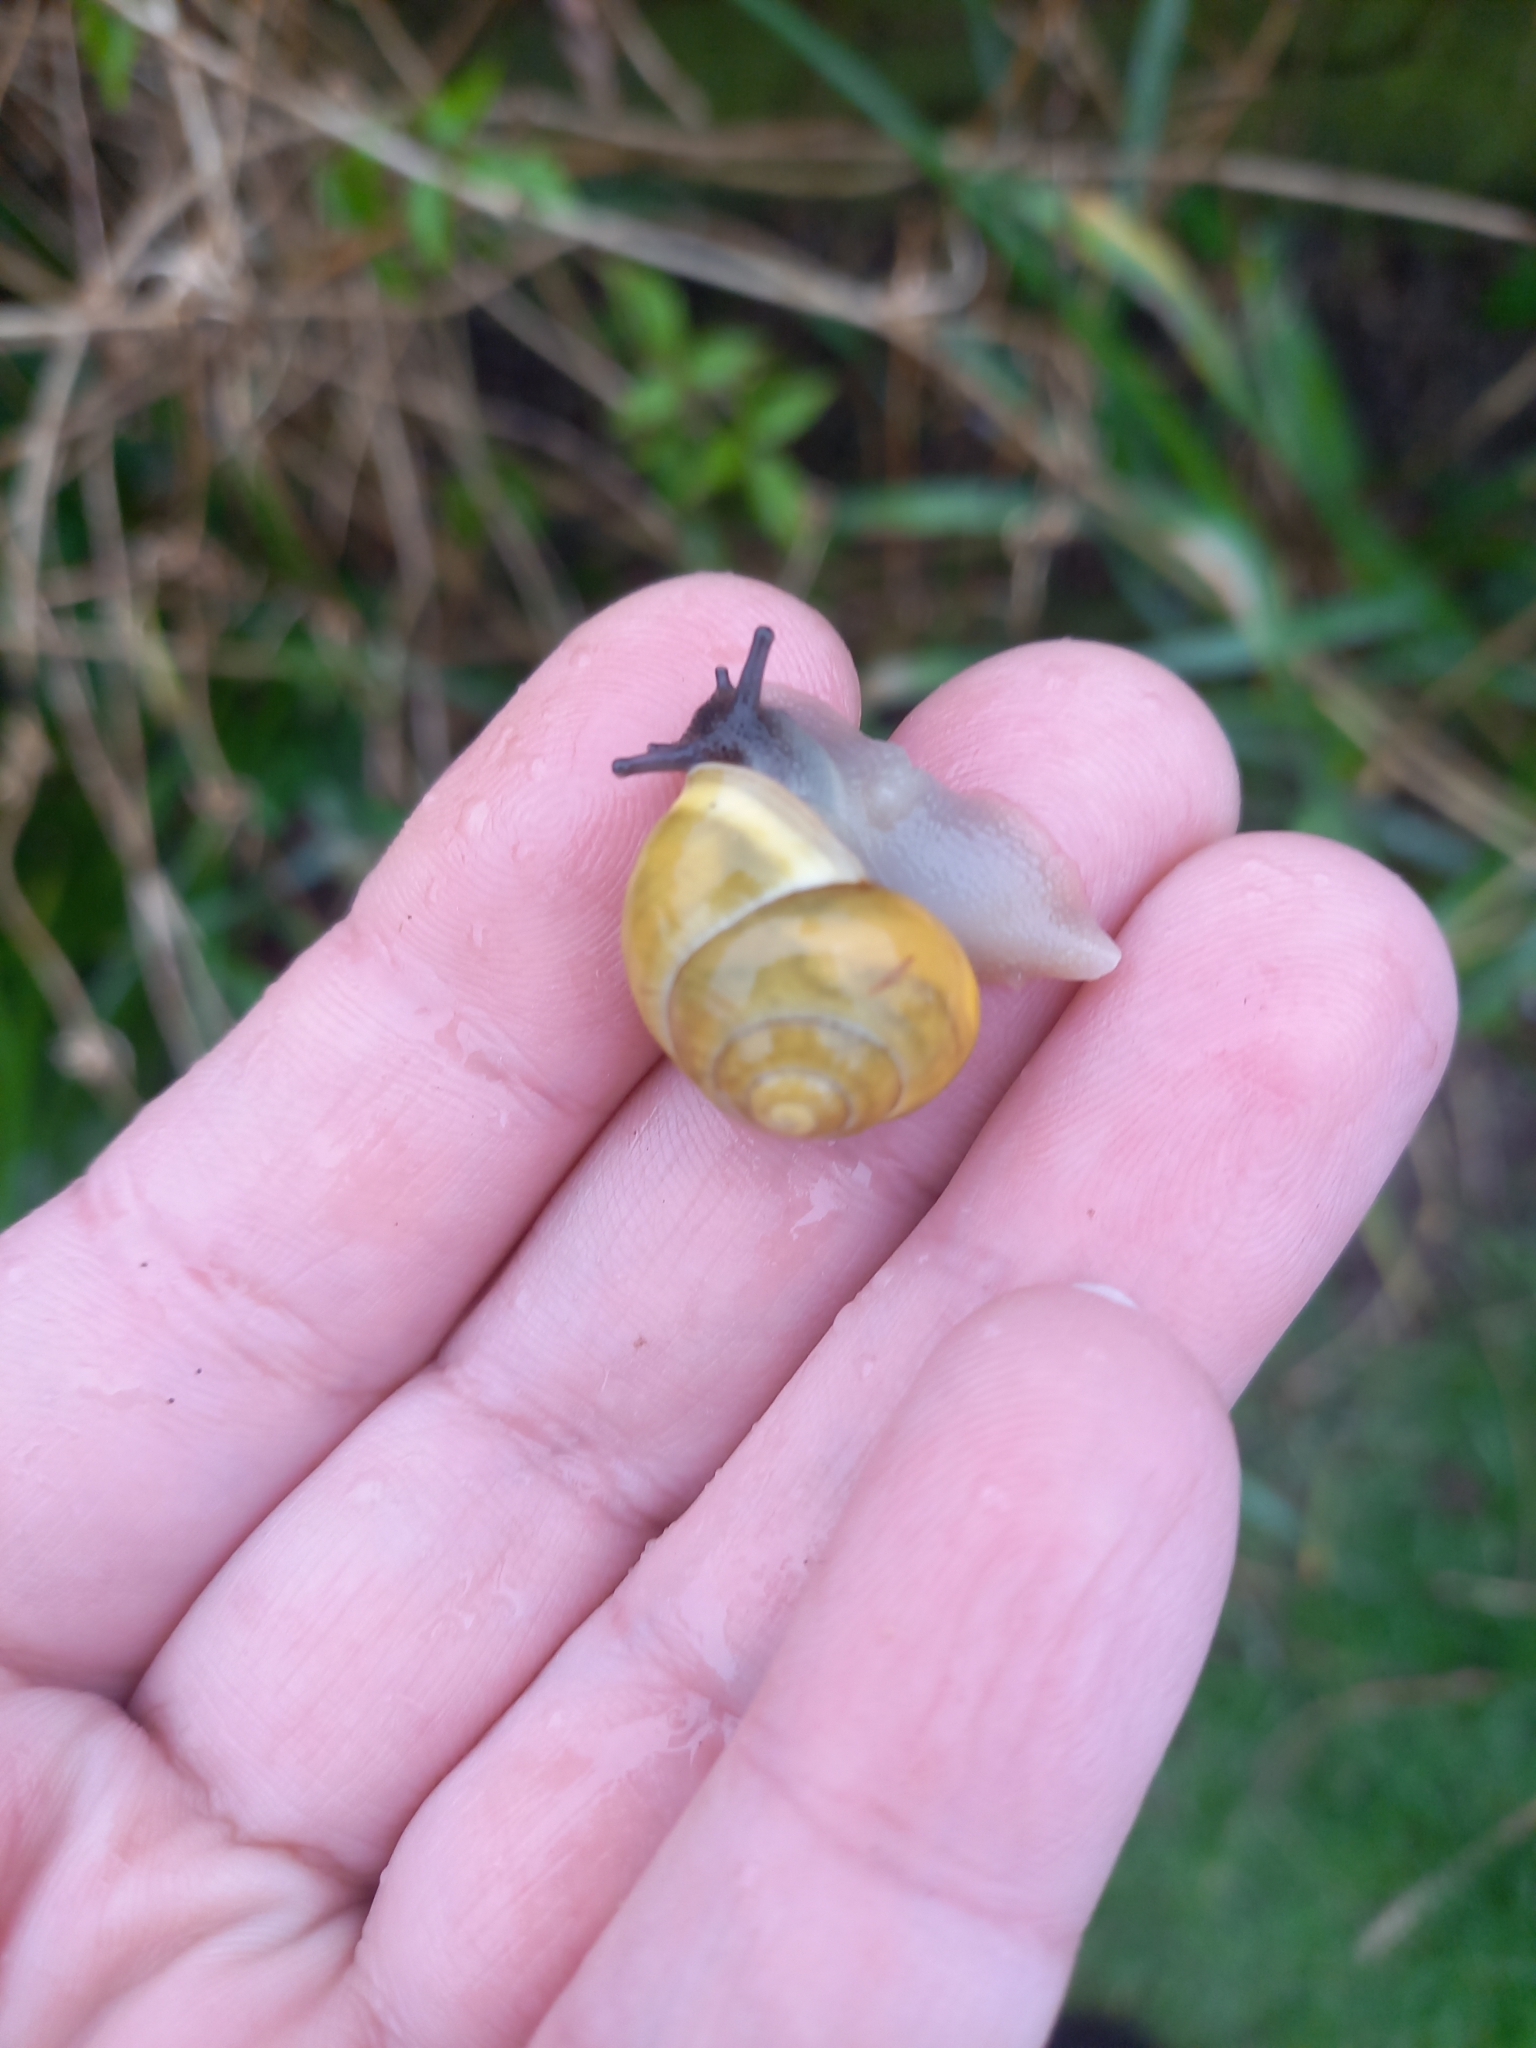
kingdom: Animalia
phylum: Mollusca
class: Gastropoda
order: Stylommatophora
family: Helicidae
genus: Cepaea
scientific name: Cepaea hortensis
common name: White-lip gardensnail
